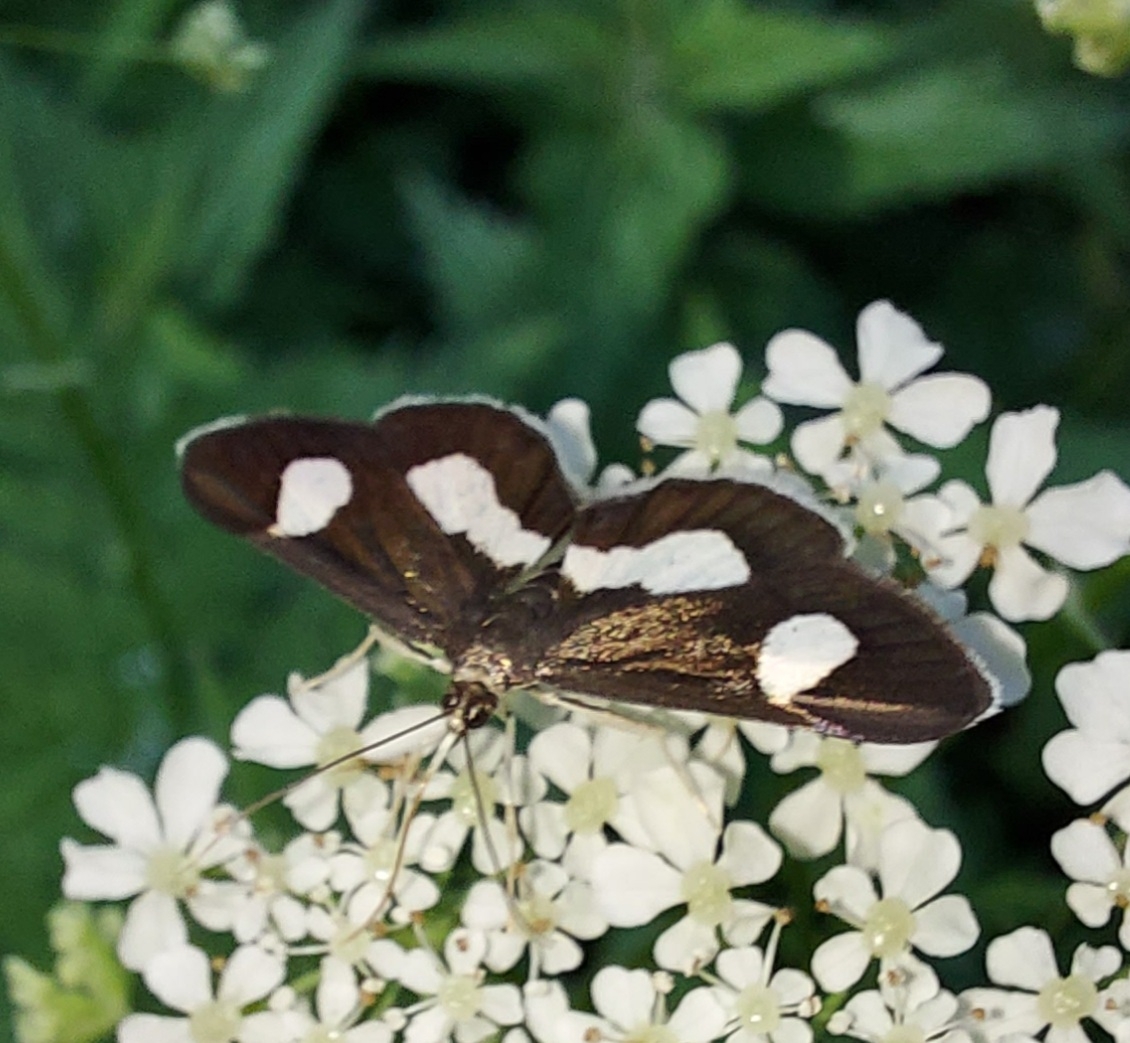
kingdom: Animalia
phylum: Arthropoda
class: Insecta
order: Lepidoptera
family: Crambidae
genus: Anania
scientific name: Anania luctualis
